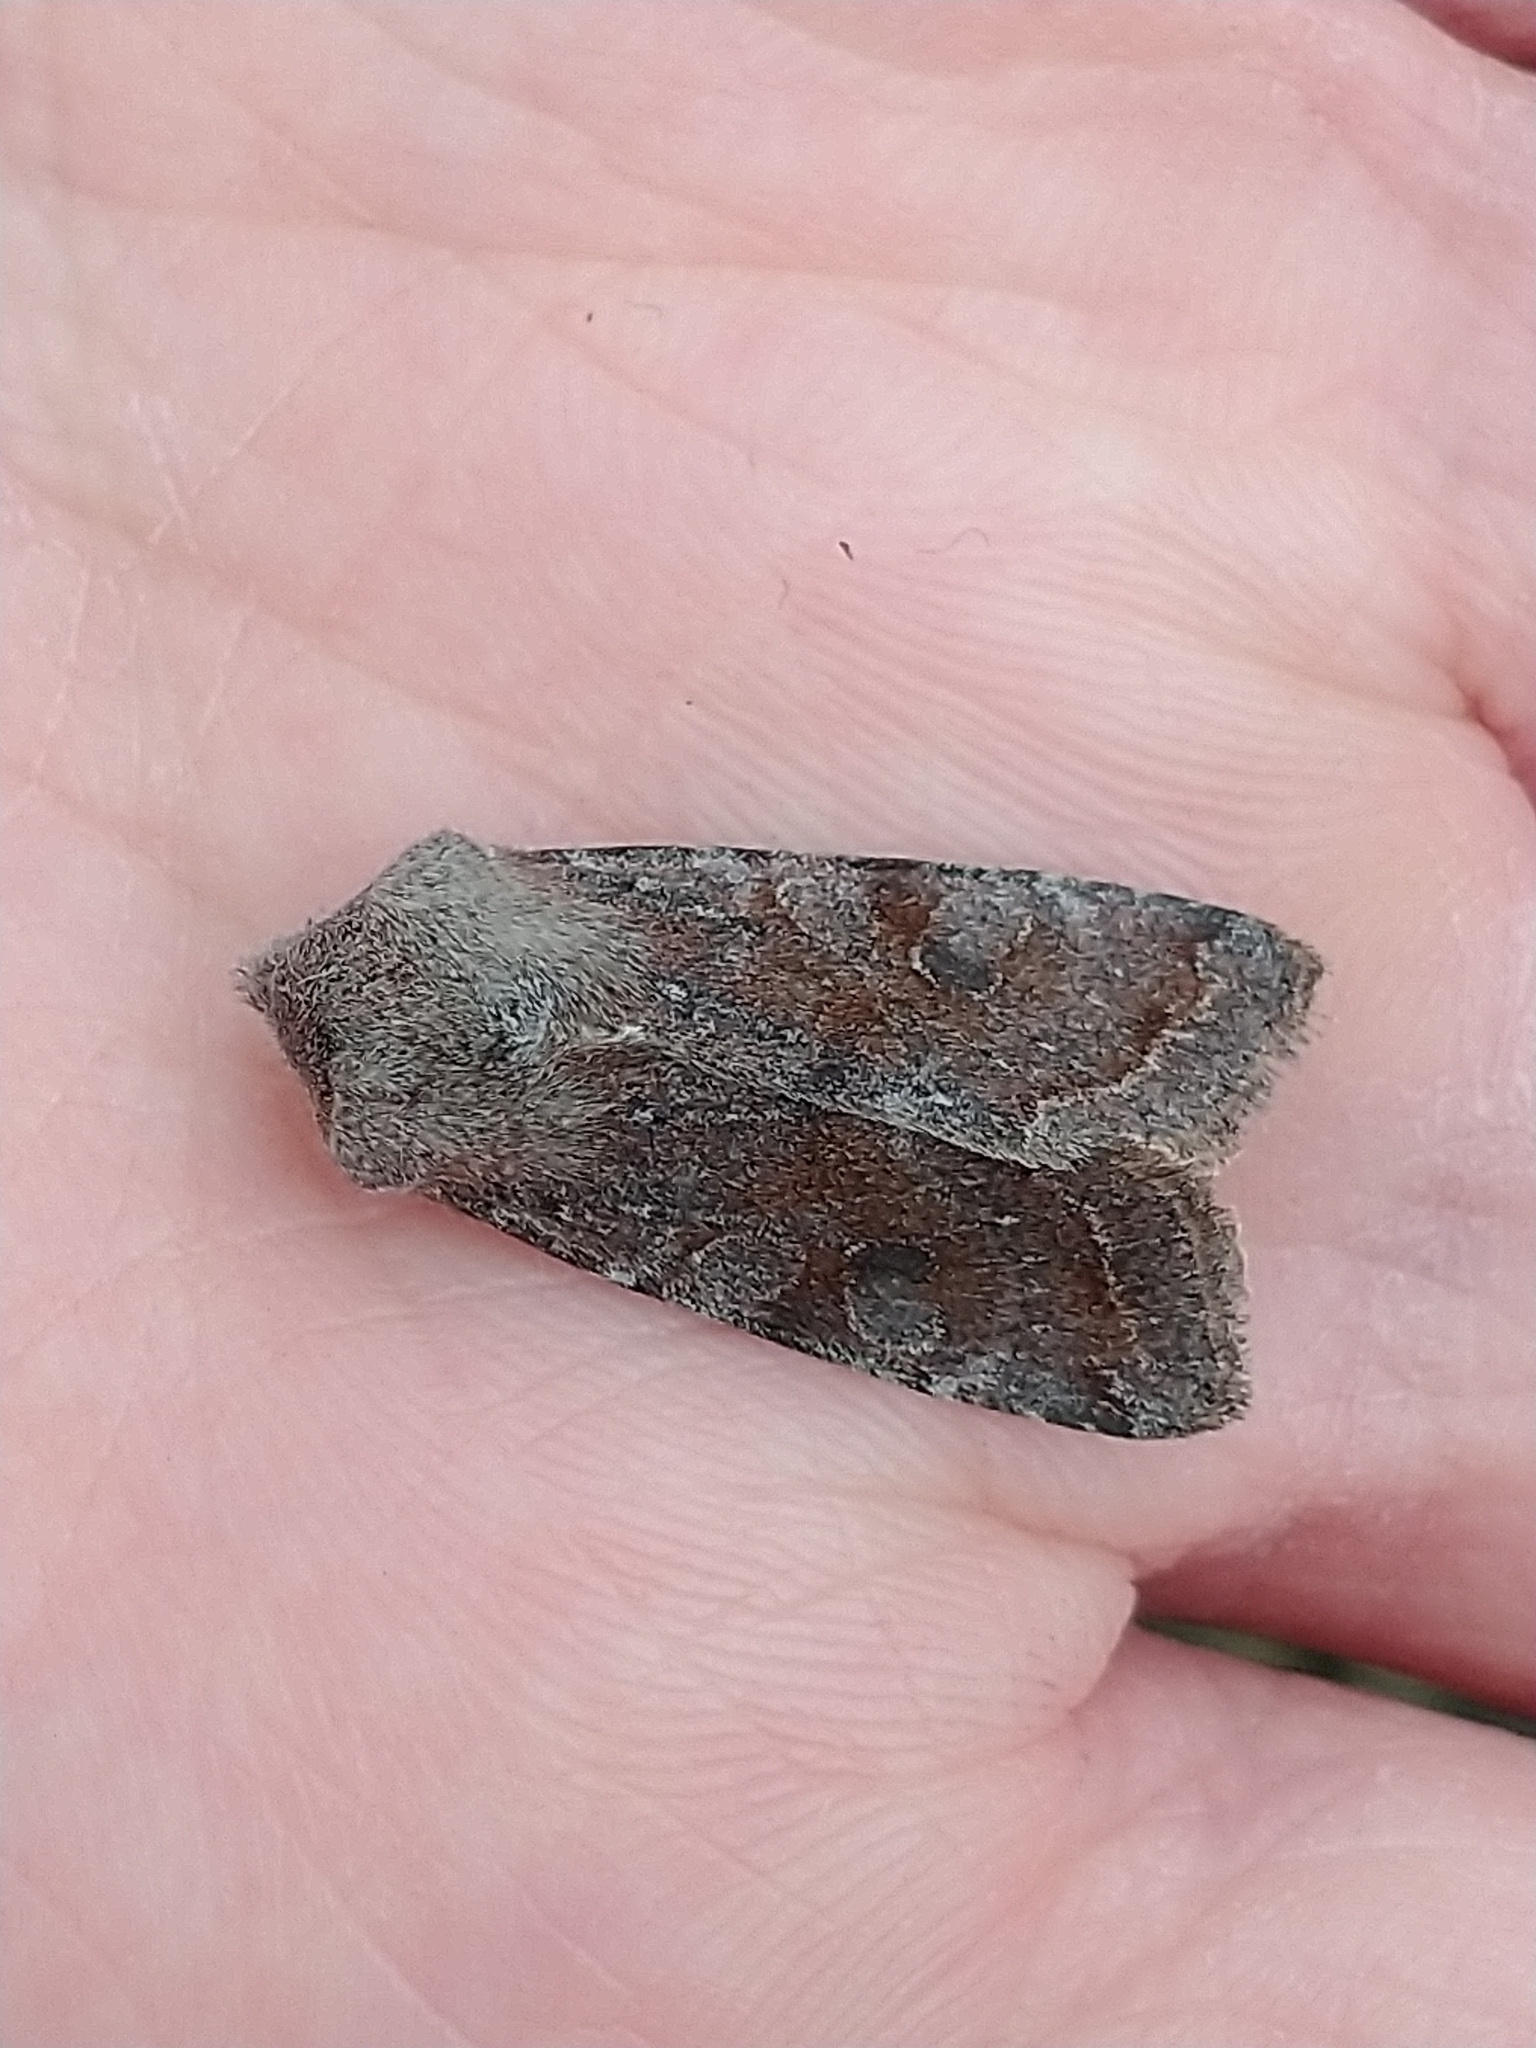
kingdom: Animalia
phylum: Arthropoda
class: Insecta
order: Lepidoptera
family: Noctuidae
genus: Orthosia
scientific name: Orthosia incerta
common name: Clouded drab
